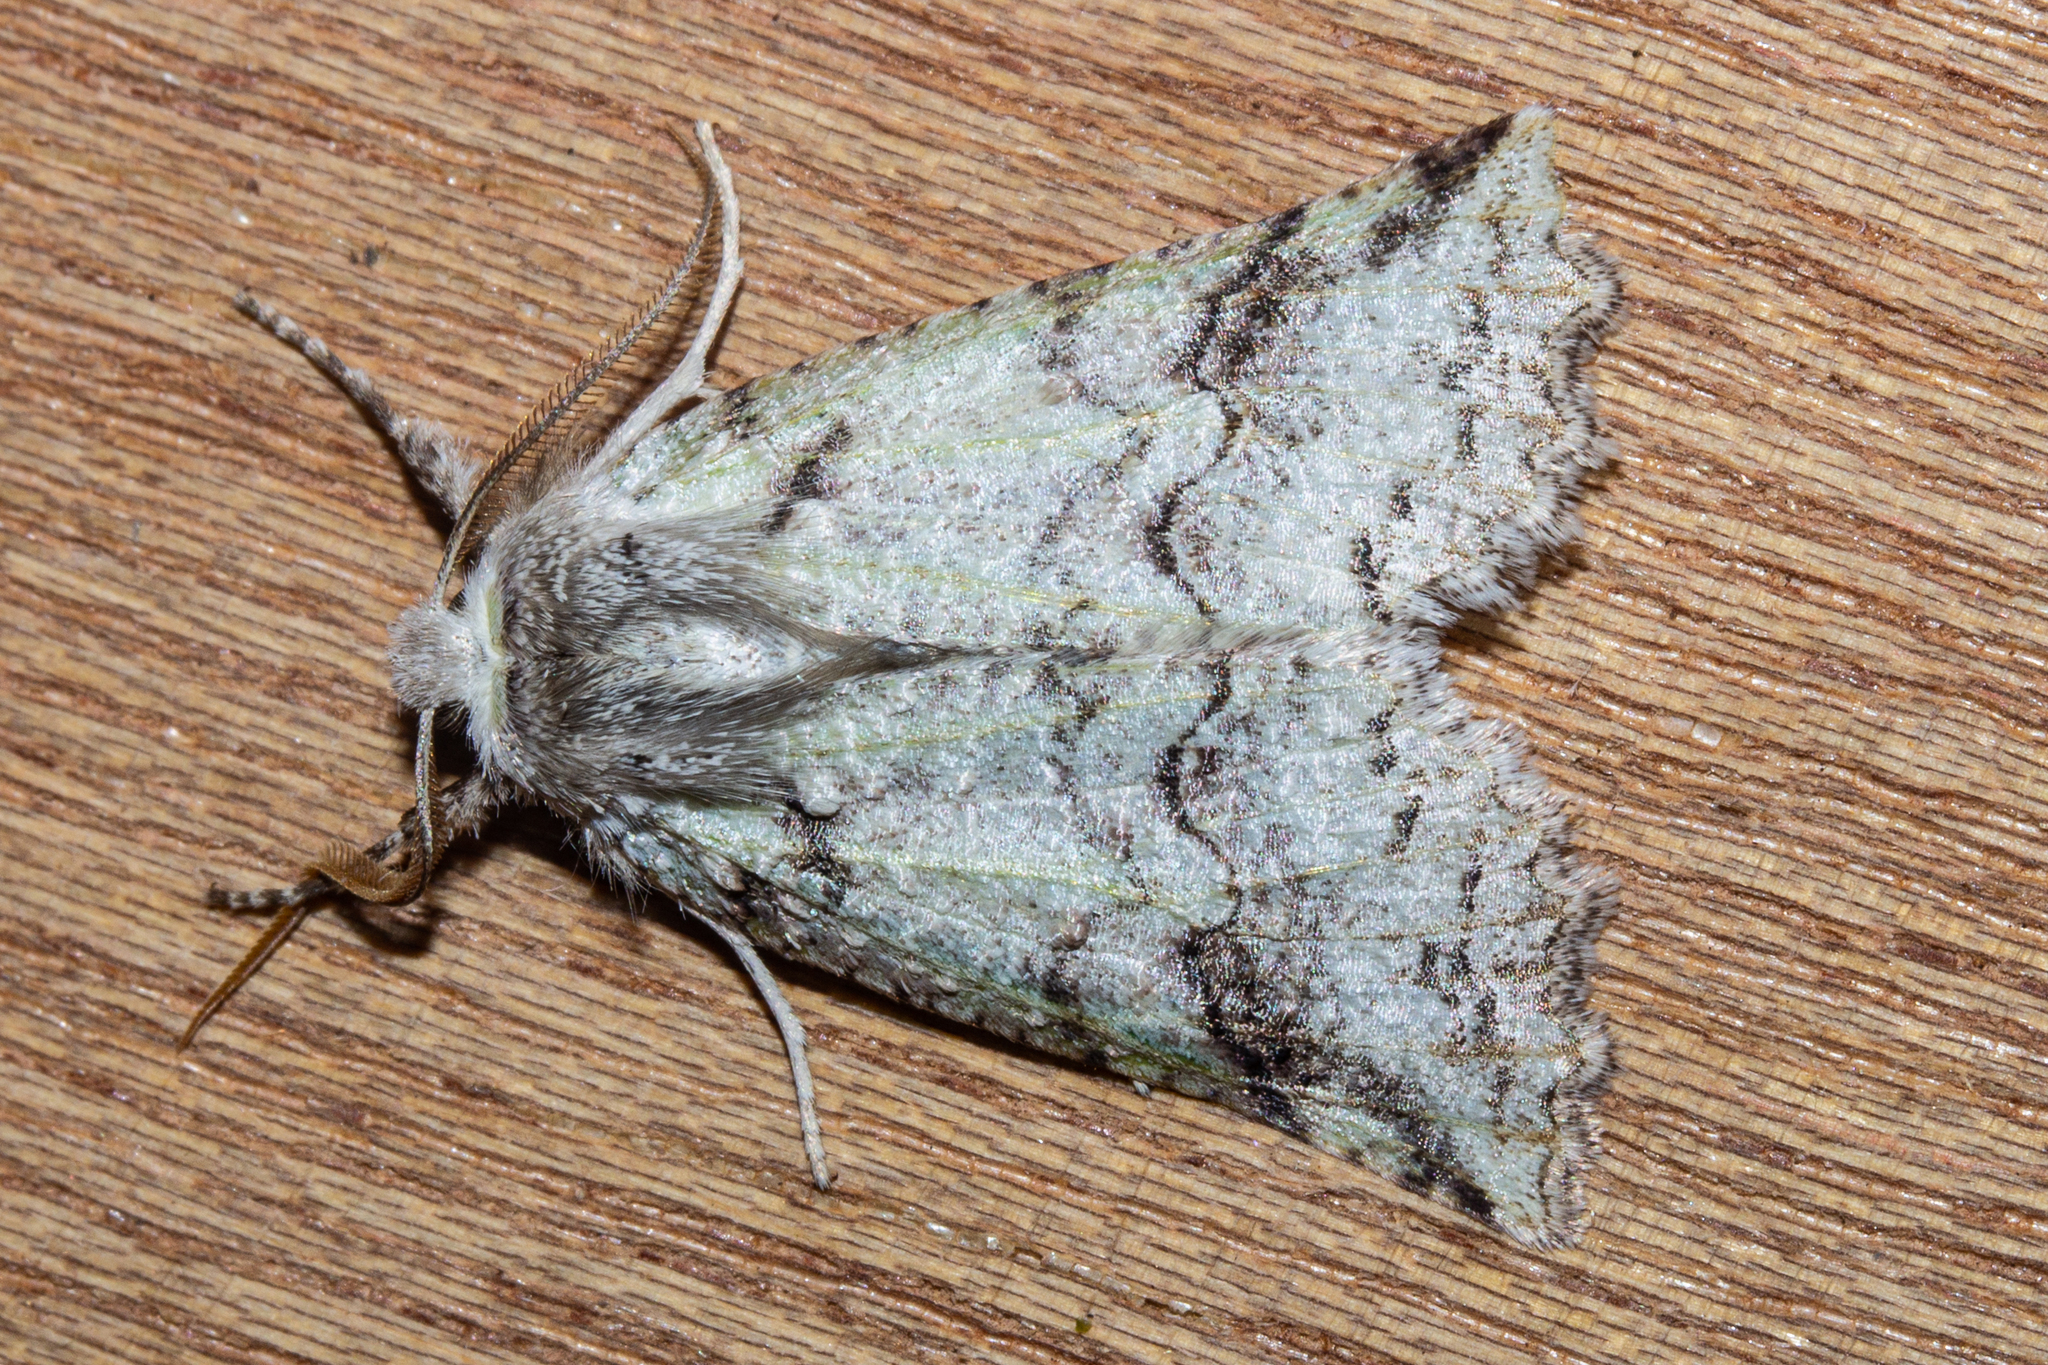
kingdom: Animalia
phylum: Arthropoda
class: Insecta
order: Lepidoptera
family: Geometridae
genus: Declana
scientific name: Declana floccosa
